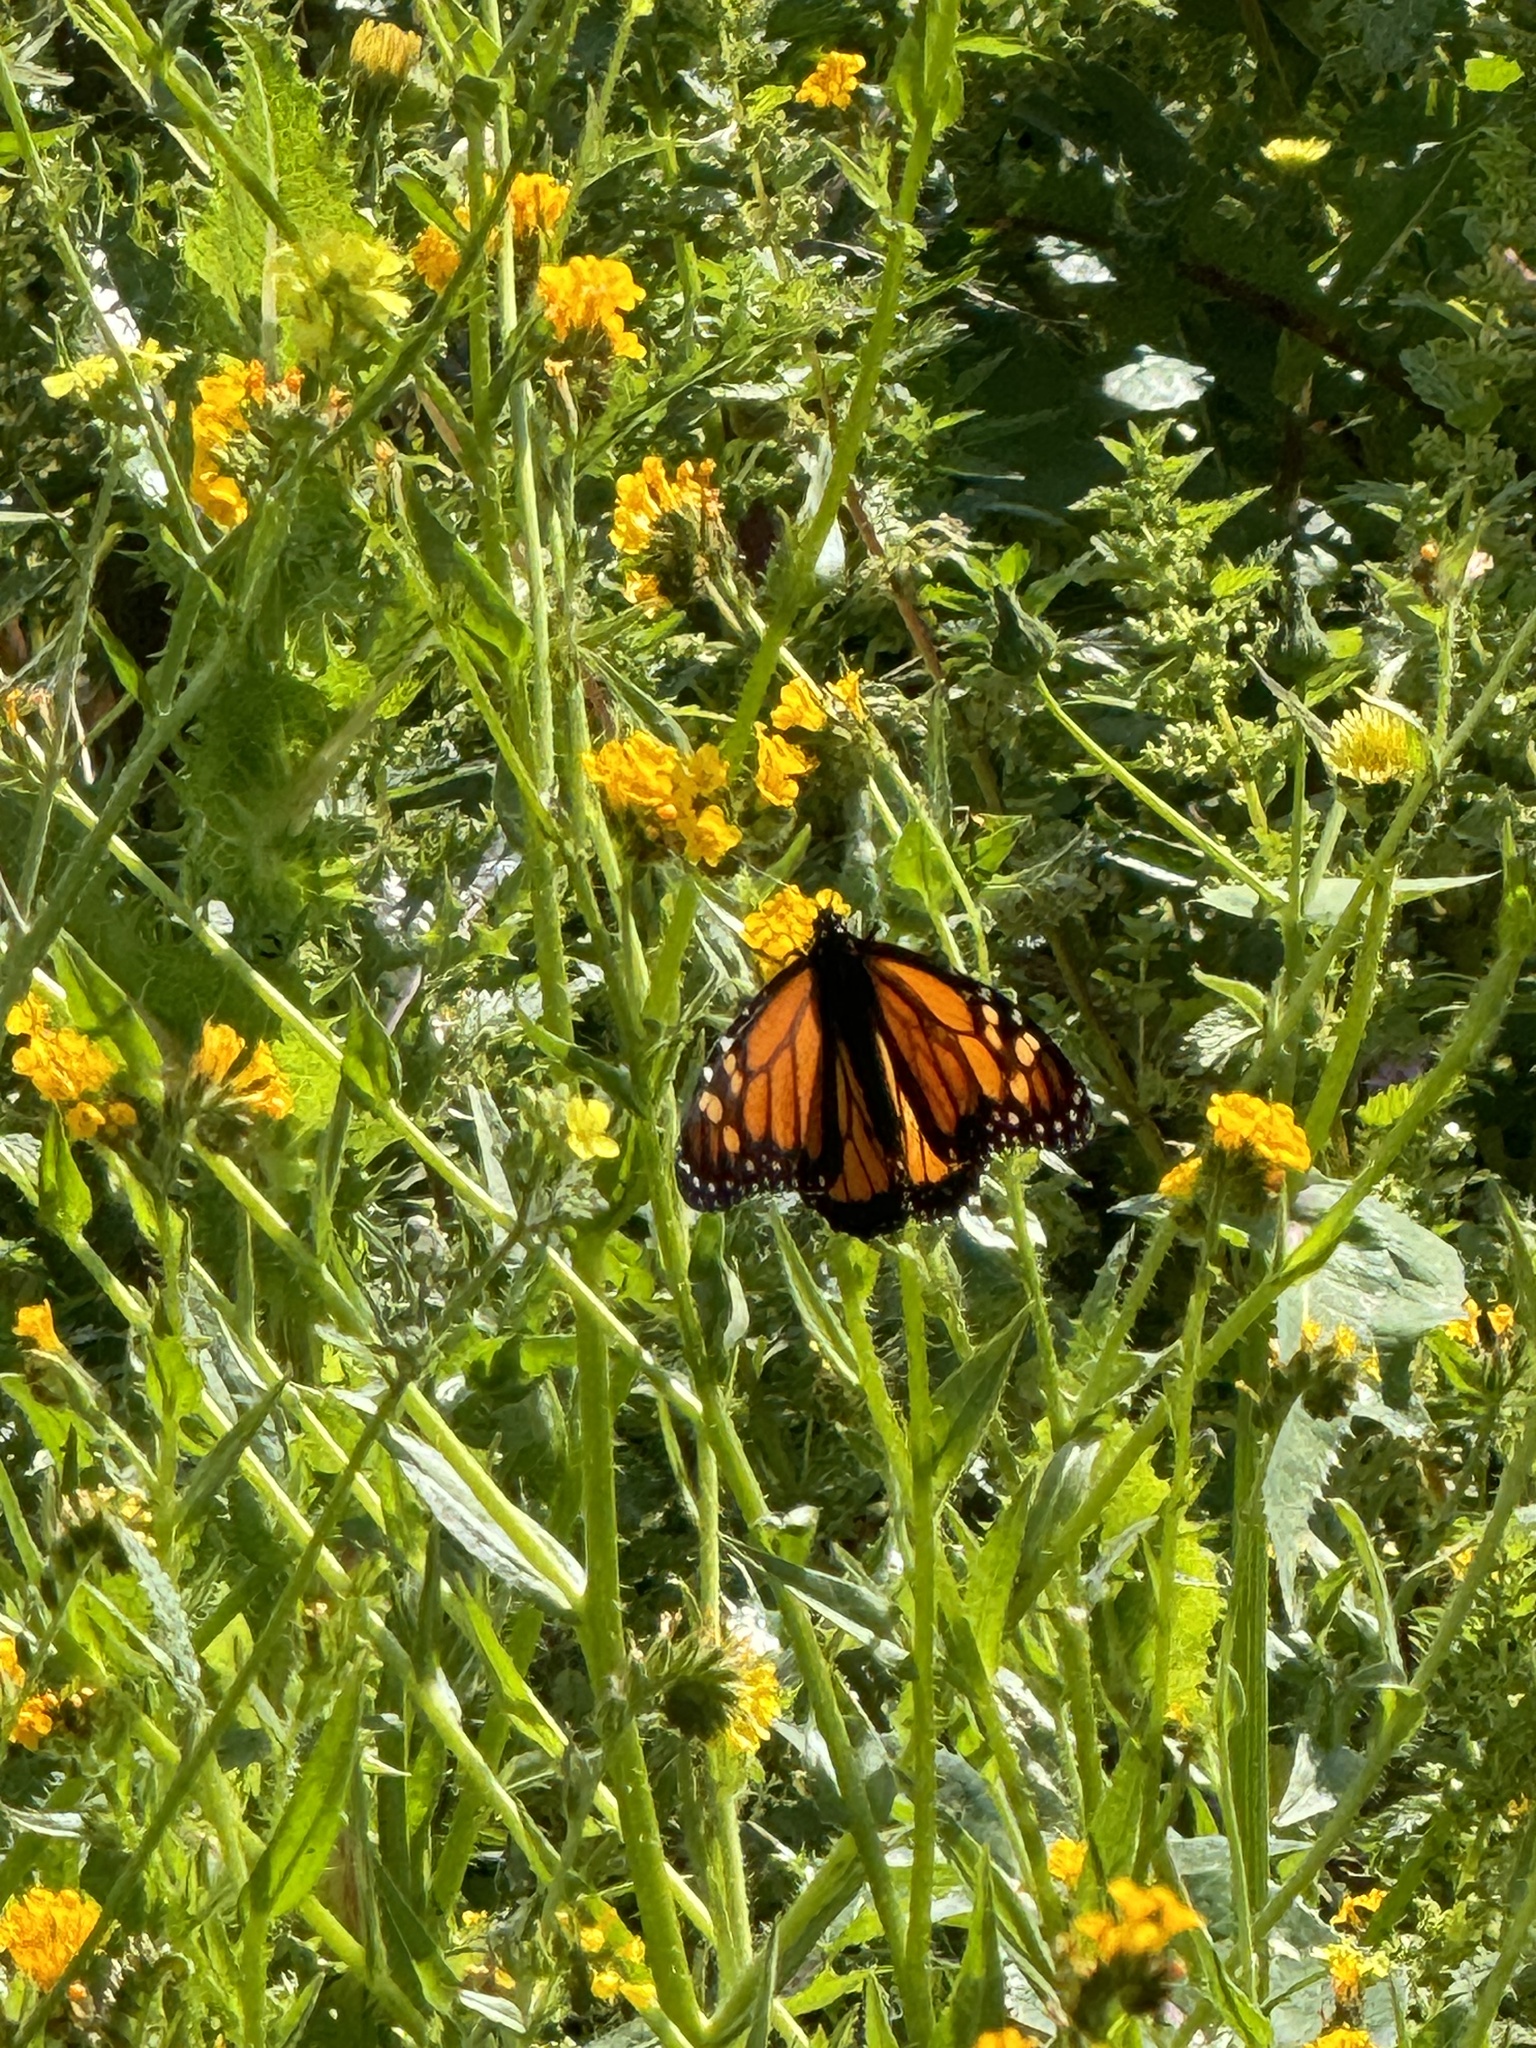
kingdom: Animalia
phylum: Arthropoda
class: Insecta
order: Lepidoptera
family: Nymphalidae
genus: Danaus
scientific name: Danaus plexippus
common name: Monarch
